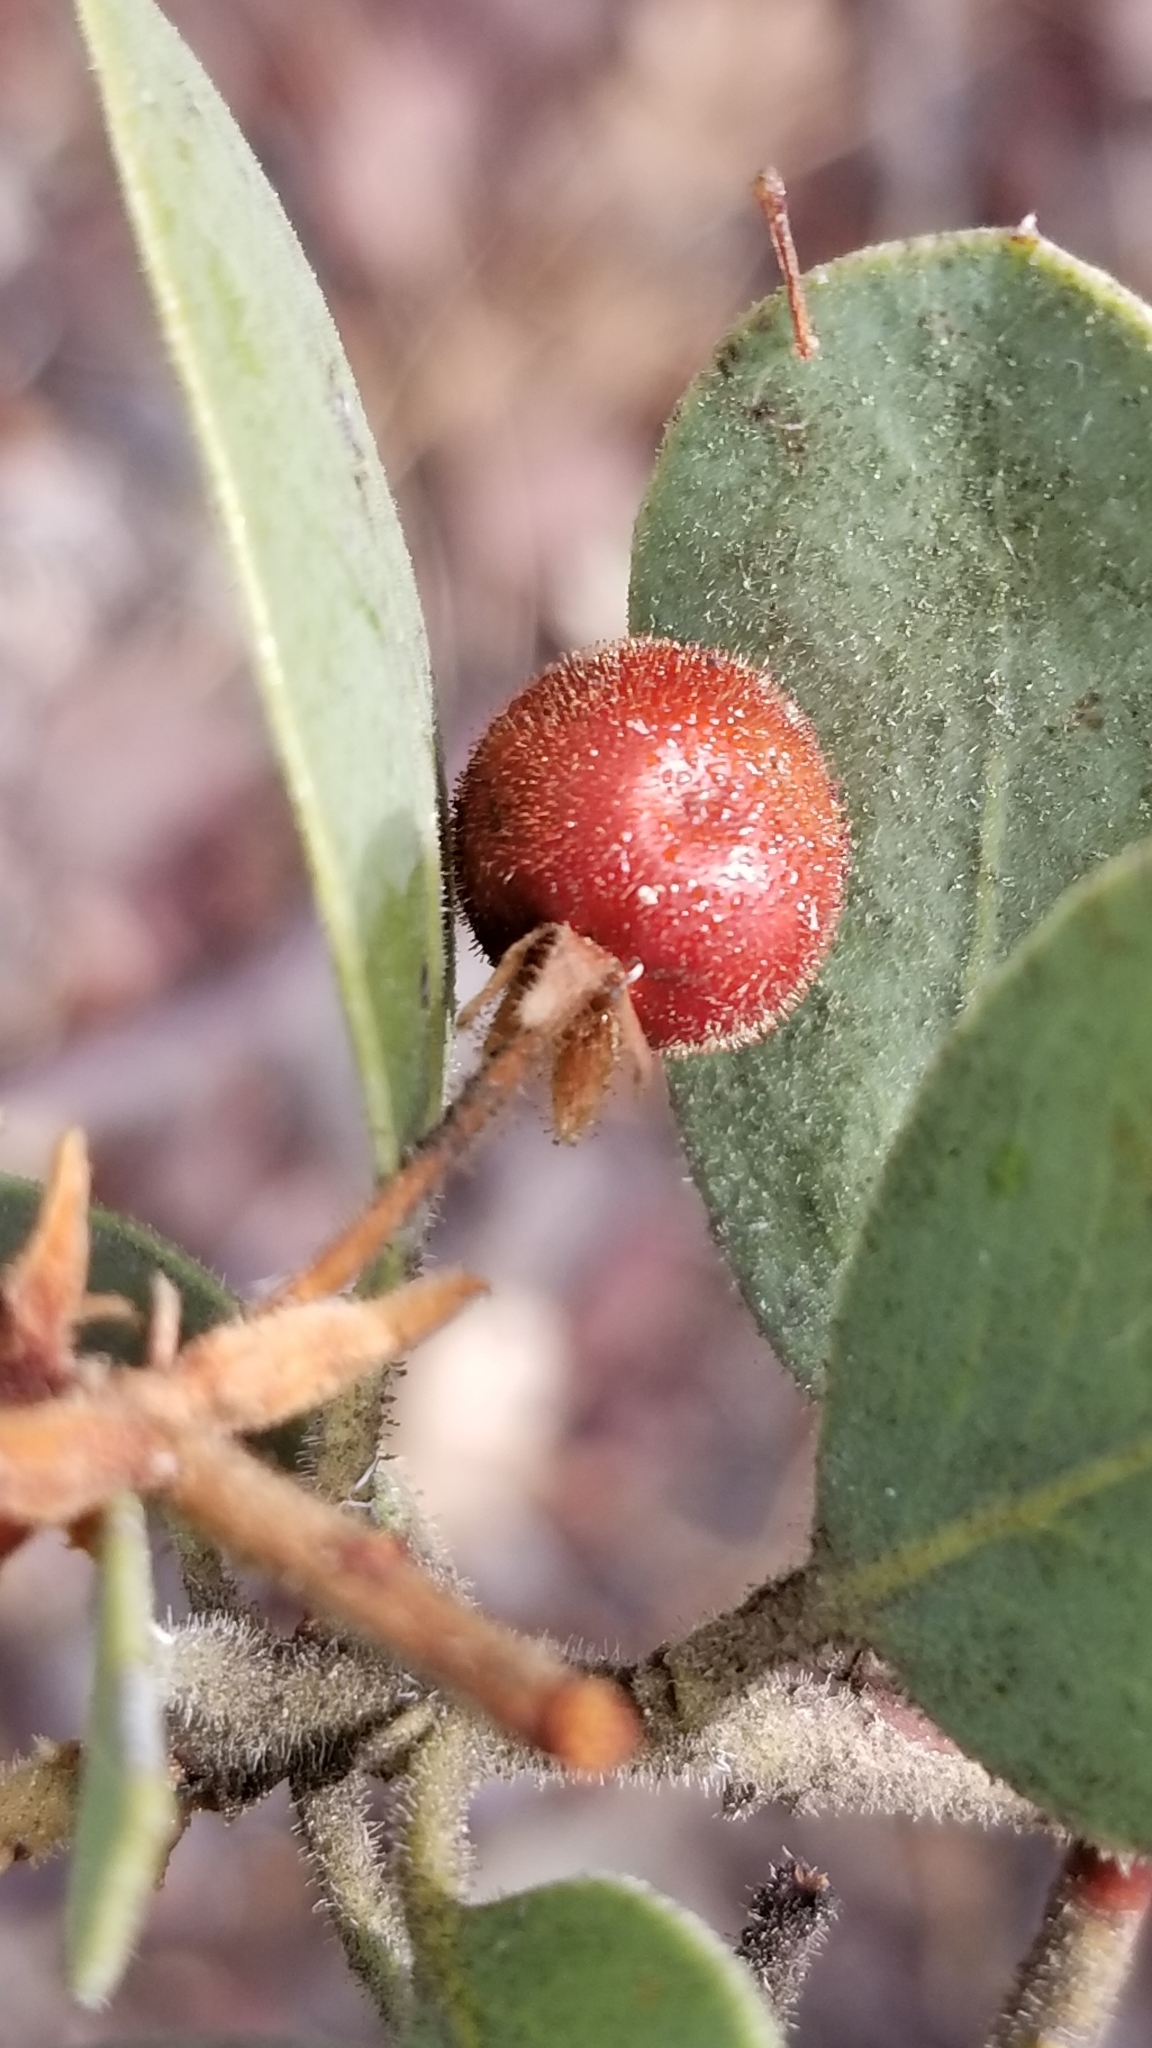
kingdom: Plantae
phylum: Tracheophyta
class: Magnoliopsida
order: Ericales
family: Ericaceae
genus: Arctostaphylos
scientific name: Arctostaphylos pringlei
